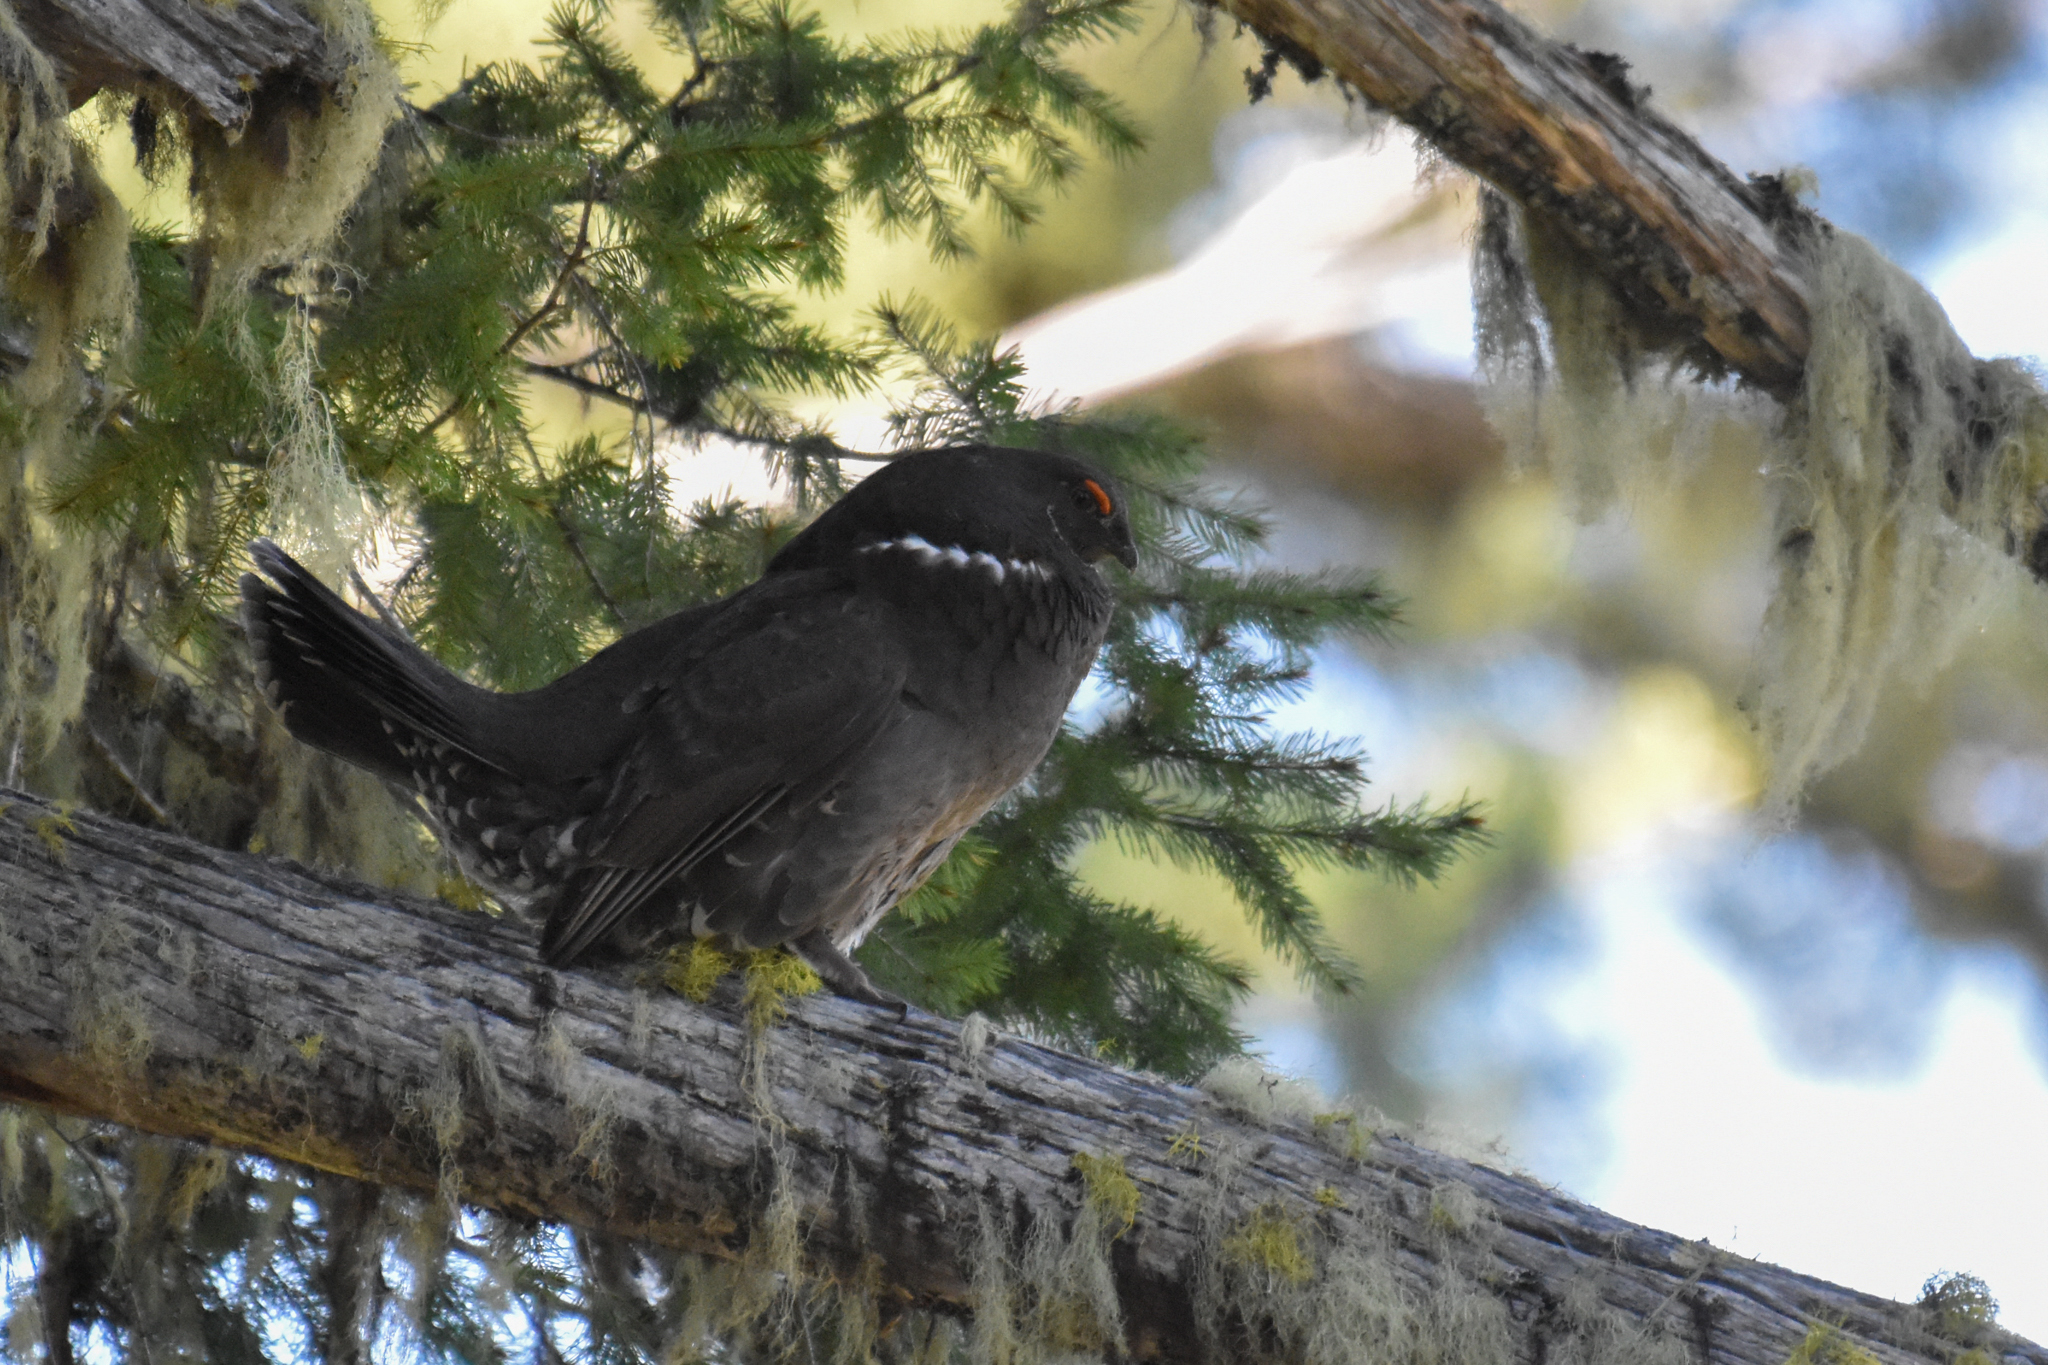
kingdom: Animalia
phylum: Chordata
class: Aves
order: Galliformes
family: Phasianidae
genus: Dendragapus
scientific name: Dendragapus fuliginosus
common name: Sooty grouse
